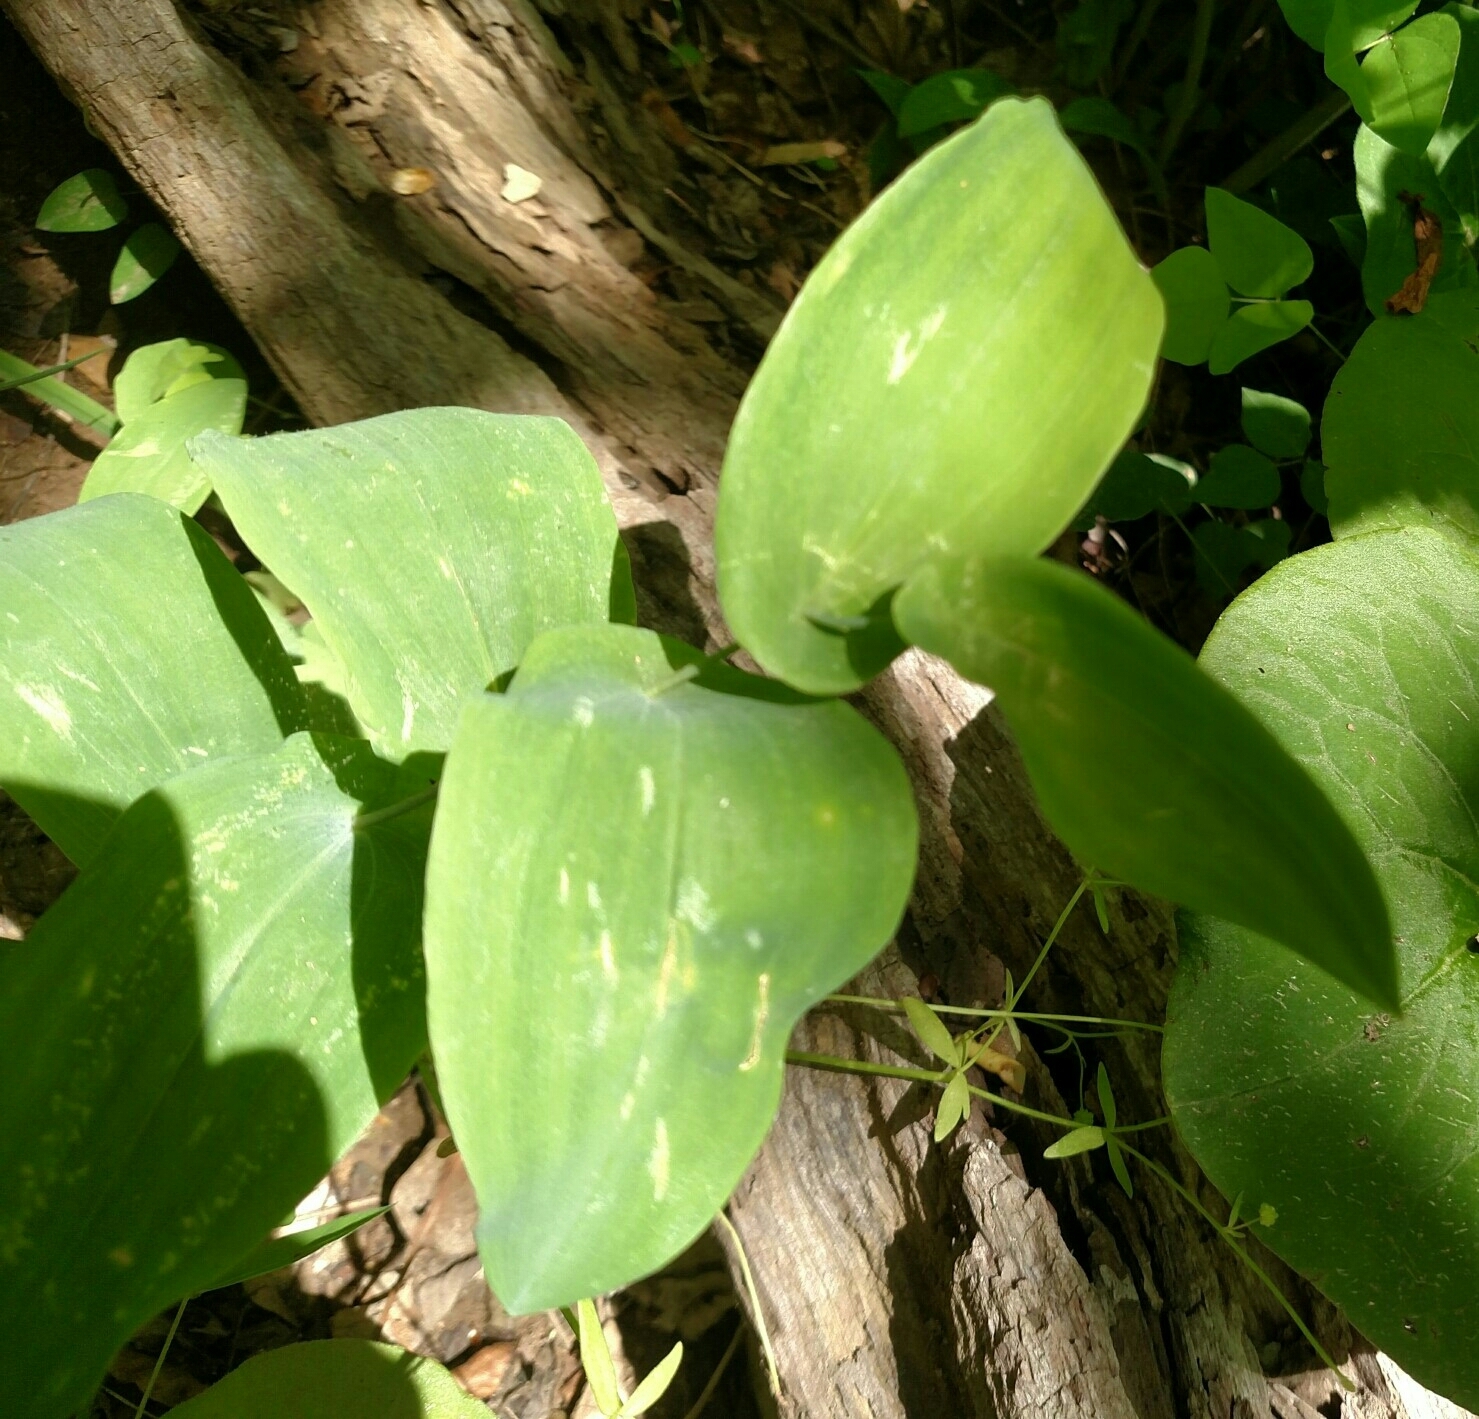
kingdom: Plantae
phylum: Tracheophyta
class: Liliopsida
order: Liliales
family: Colchicaceae
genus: Uvularia
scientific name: Uvularia perfoliata
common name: Perfoliate bellwort
